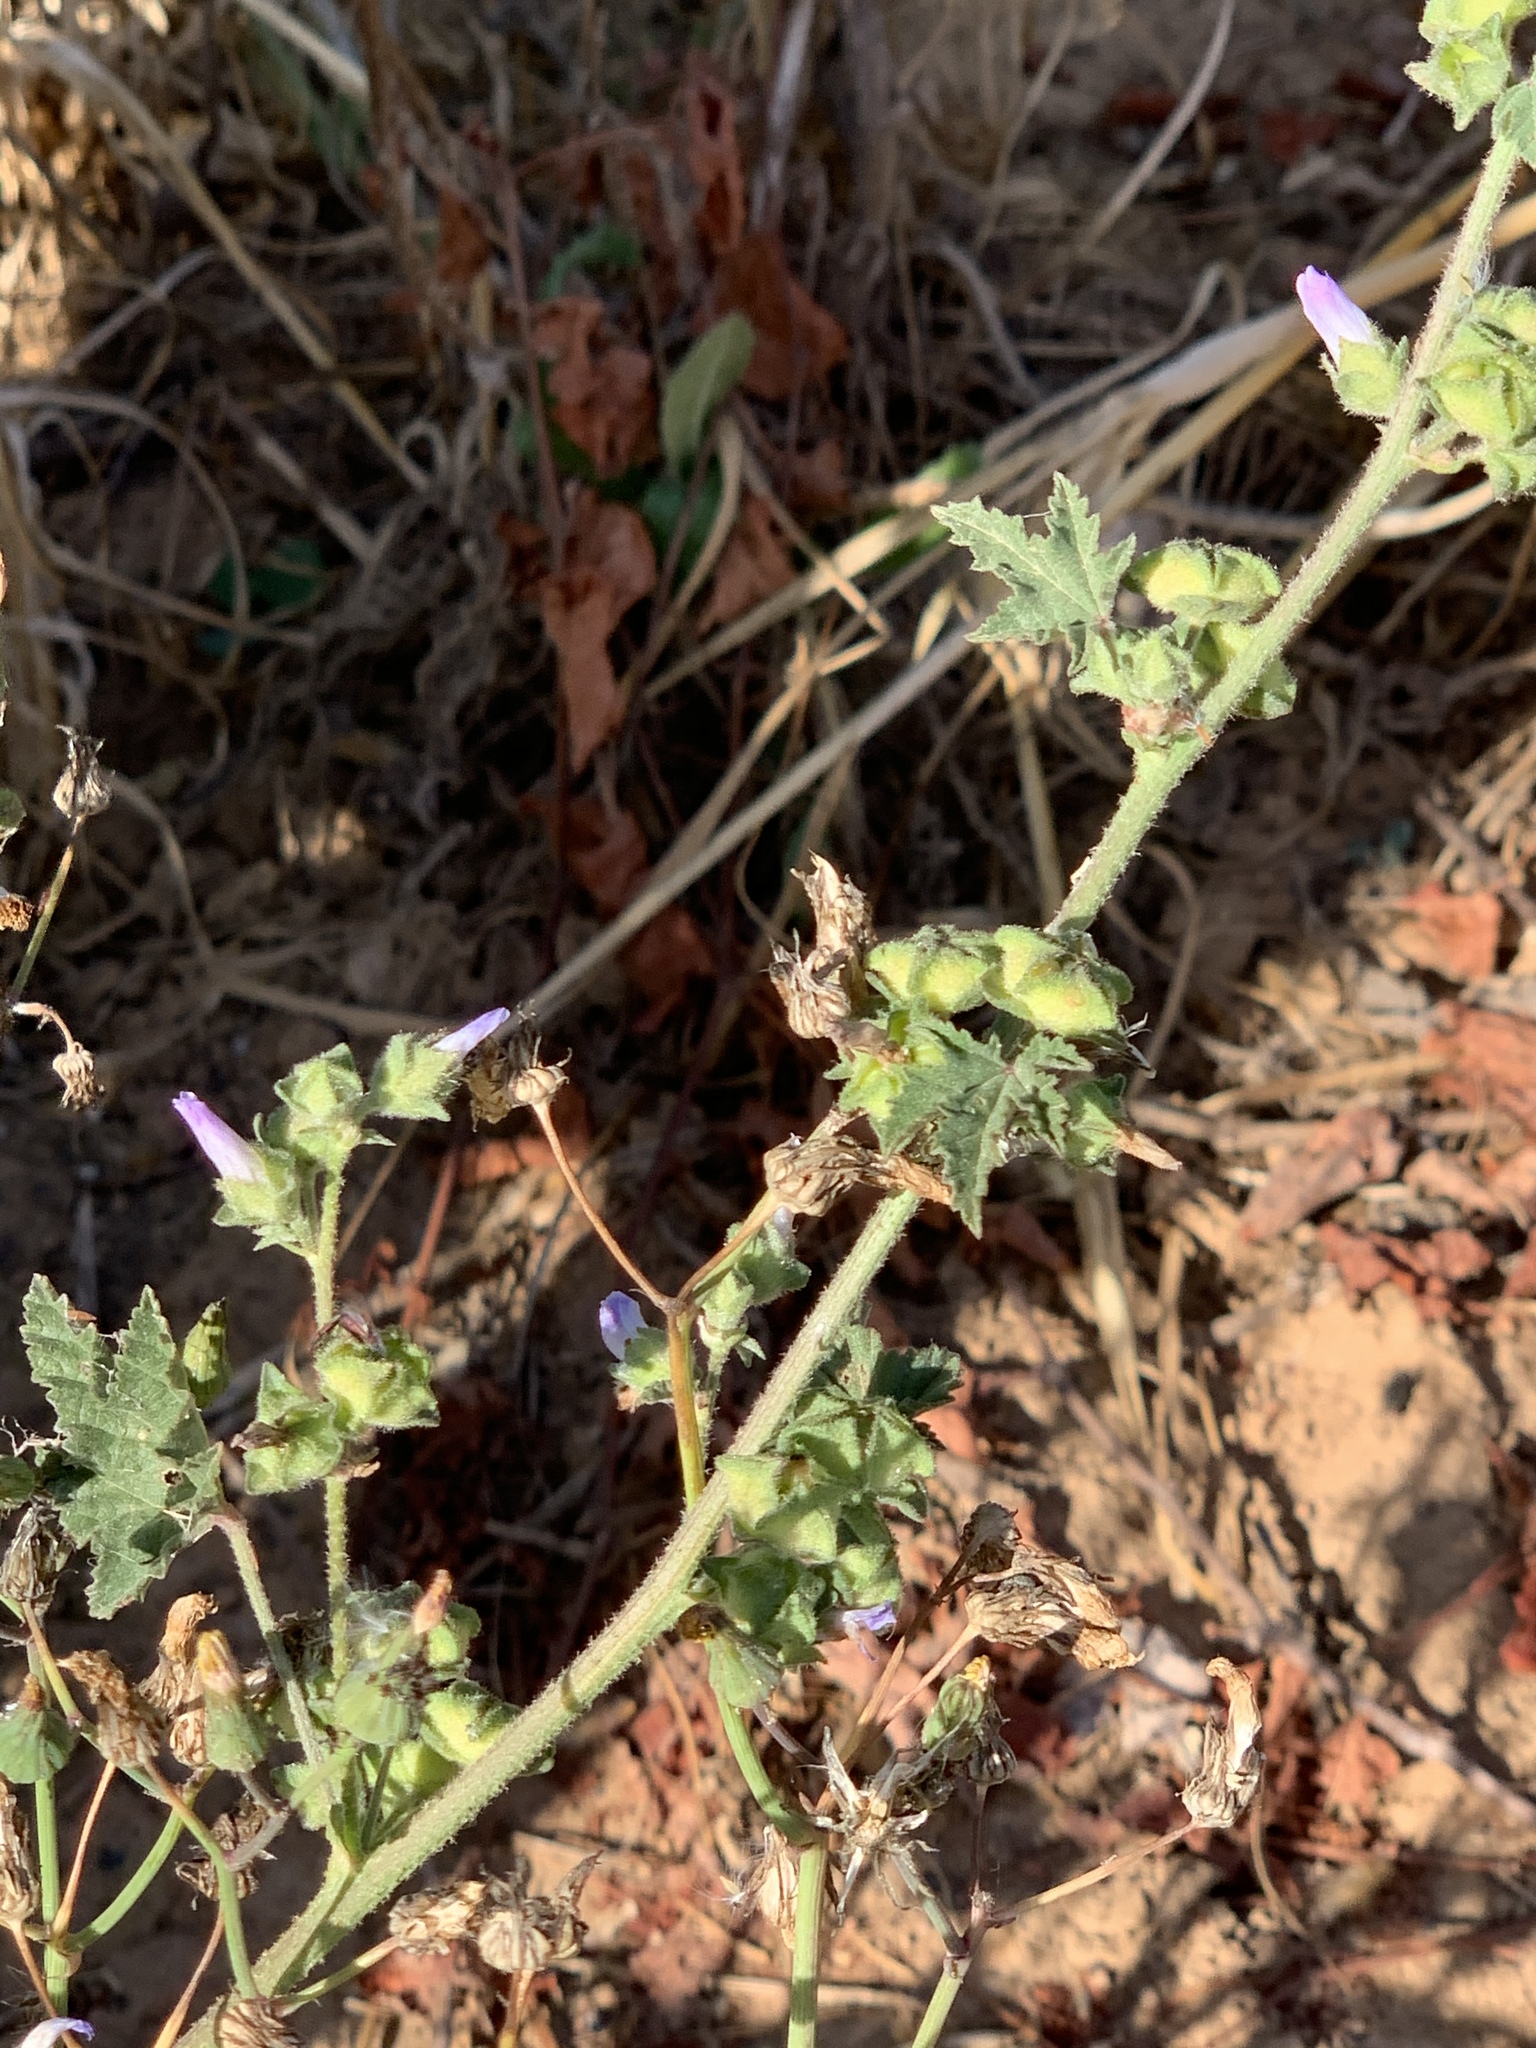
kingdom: Plantae
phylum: Tracheophyta
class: Magnoliopsida
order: Malvales
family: Malvaceae
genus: Malva
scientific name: Malva multiflora
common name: Cheeseweed
